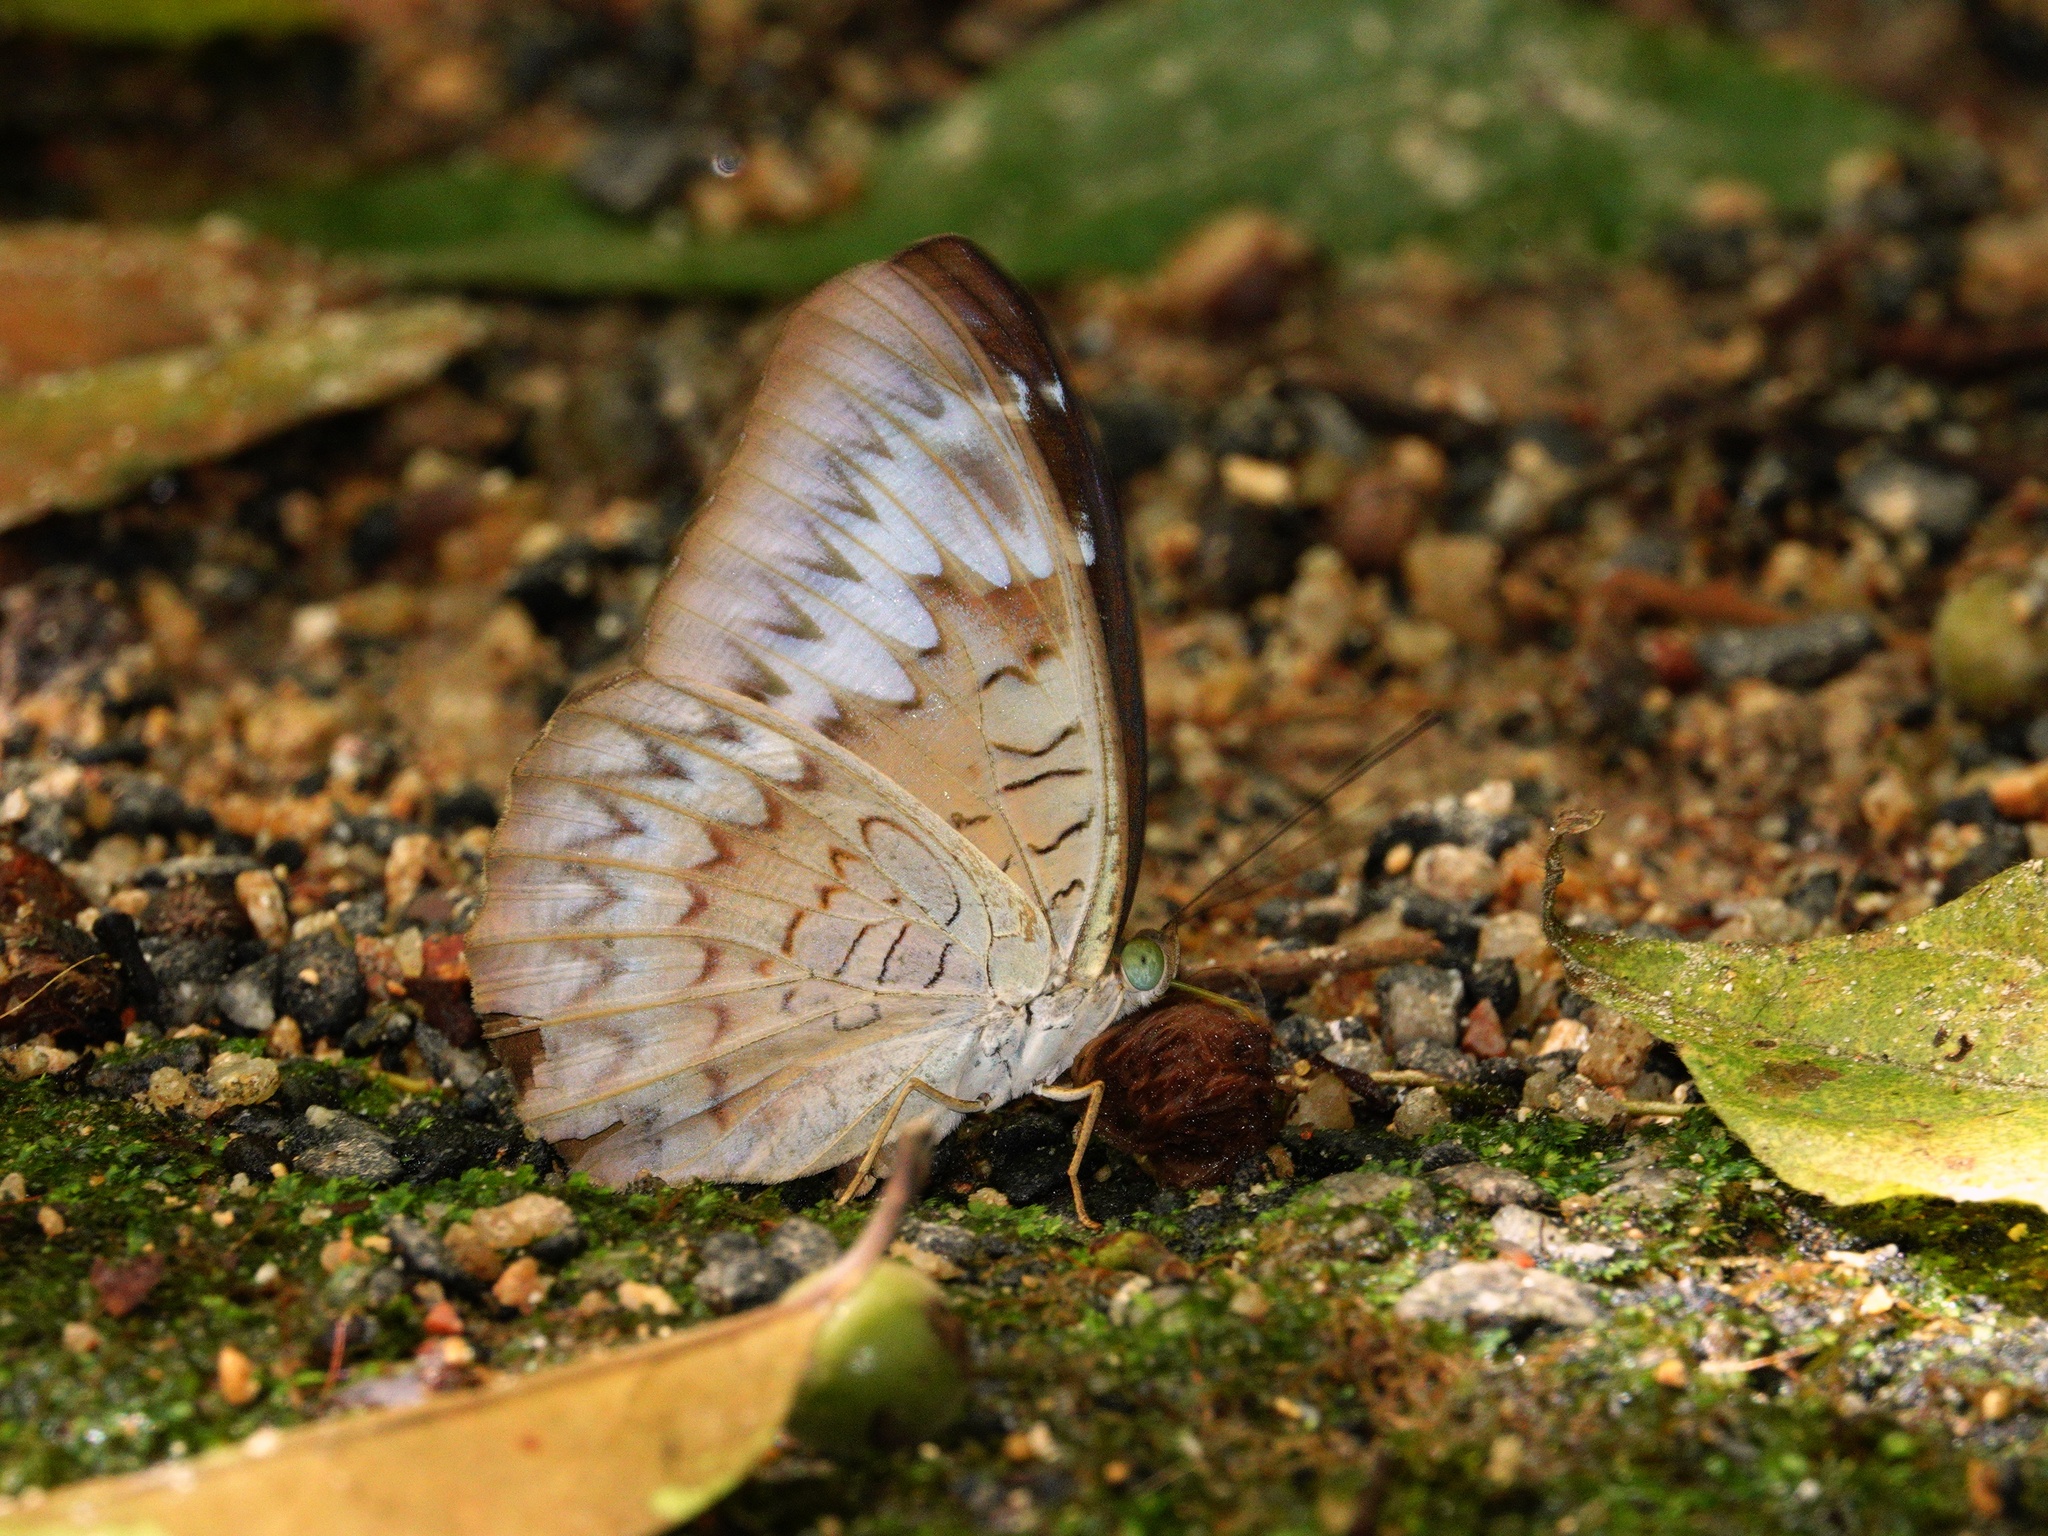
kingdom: Animalia
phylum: Arthropoda
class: Insecta
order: Lepidoptera
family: Nymphalidae
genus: Tanaecia
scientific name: Tanaecia pelea
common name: Malay viscount
